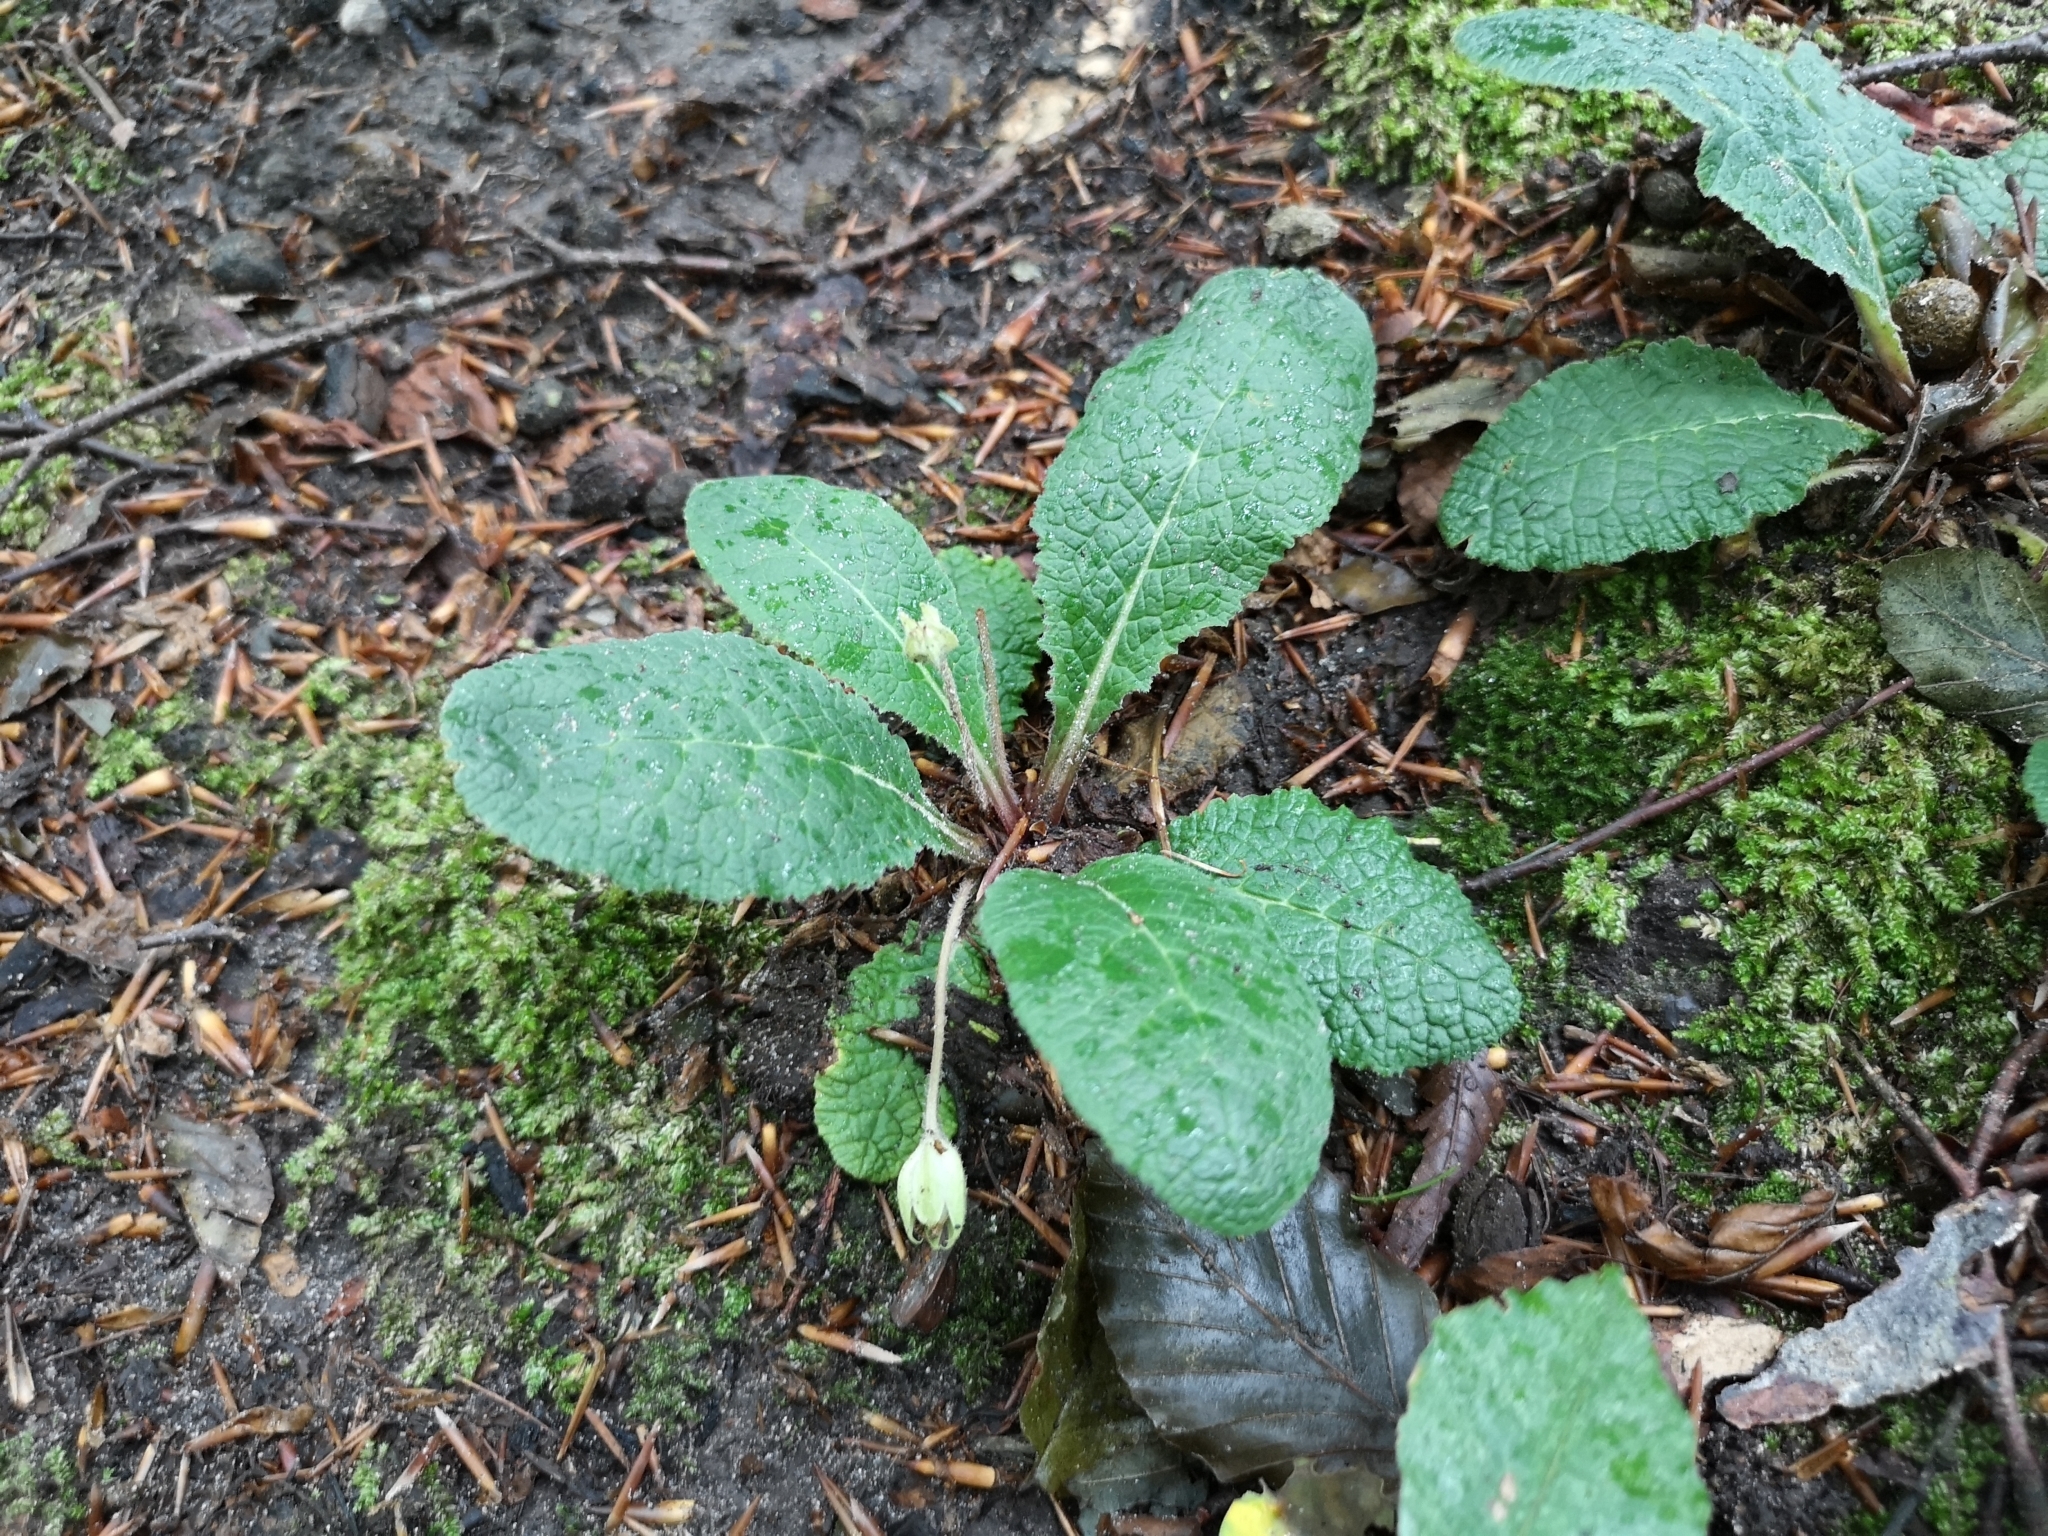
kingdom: Plantae
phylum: Tracheophyta
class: Magnoliopsida
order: Ericales
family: Primulaceae
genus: Primula
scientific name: Primula vulgaris
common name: Primrose
